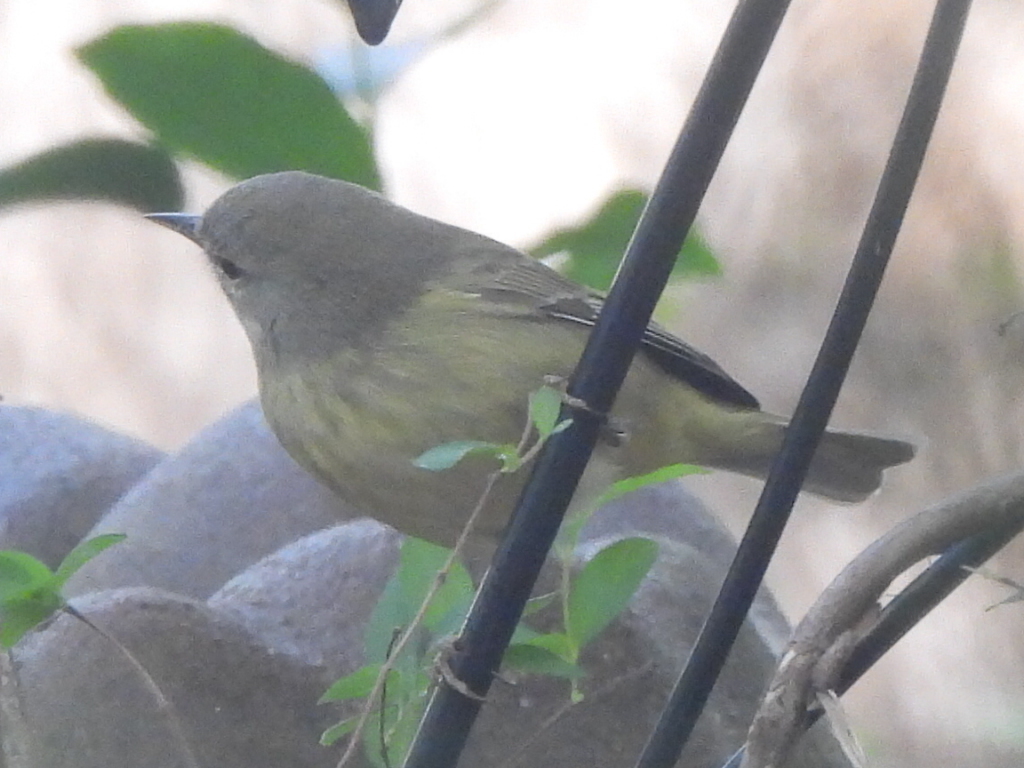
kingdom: Animalia
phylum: Chordata
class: Aves
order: Passeriformes
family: Parulidae
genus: Leiothlypis
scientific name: Leiothlypis celata
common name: Orange-crowned warbler
